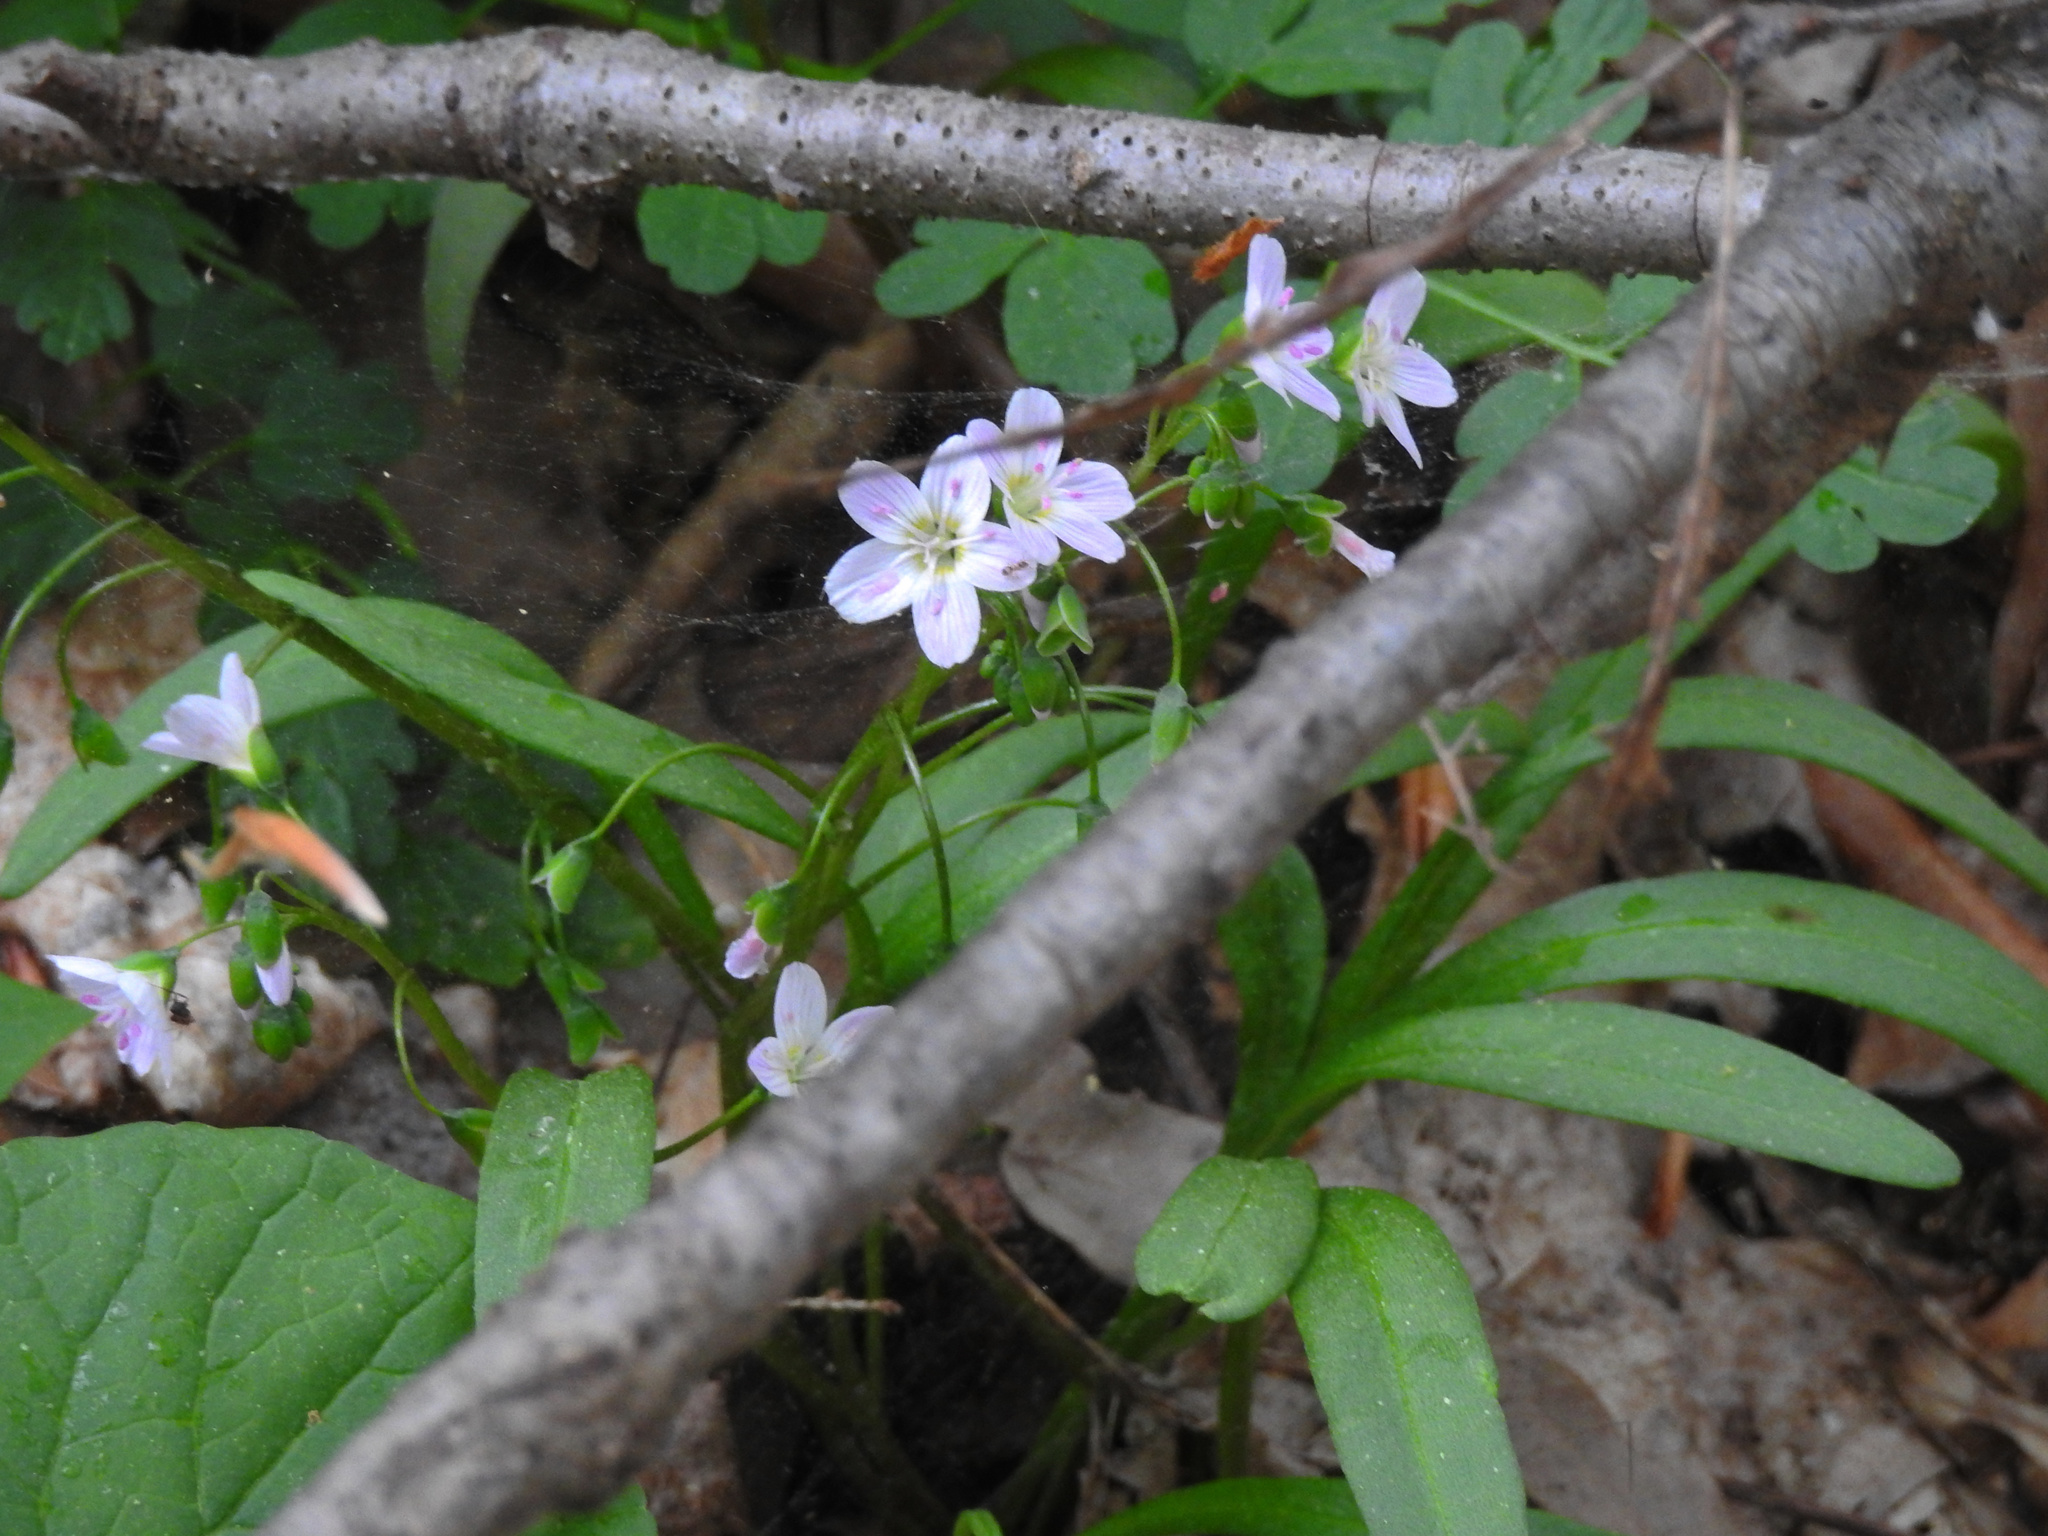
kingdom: Plantae
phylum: Tracheophyta
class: Magnoliopsida
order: Caryophyllales
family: Montiaceae
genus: Claytonia
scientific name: Claytonia virginica
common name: Virginia springbeauty
